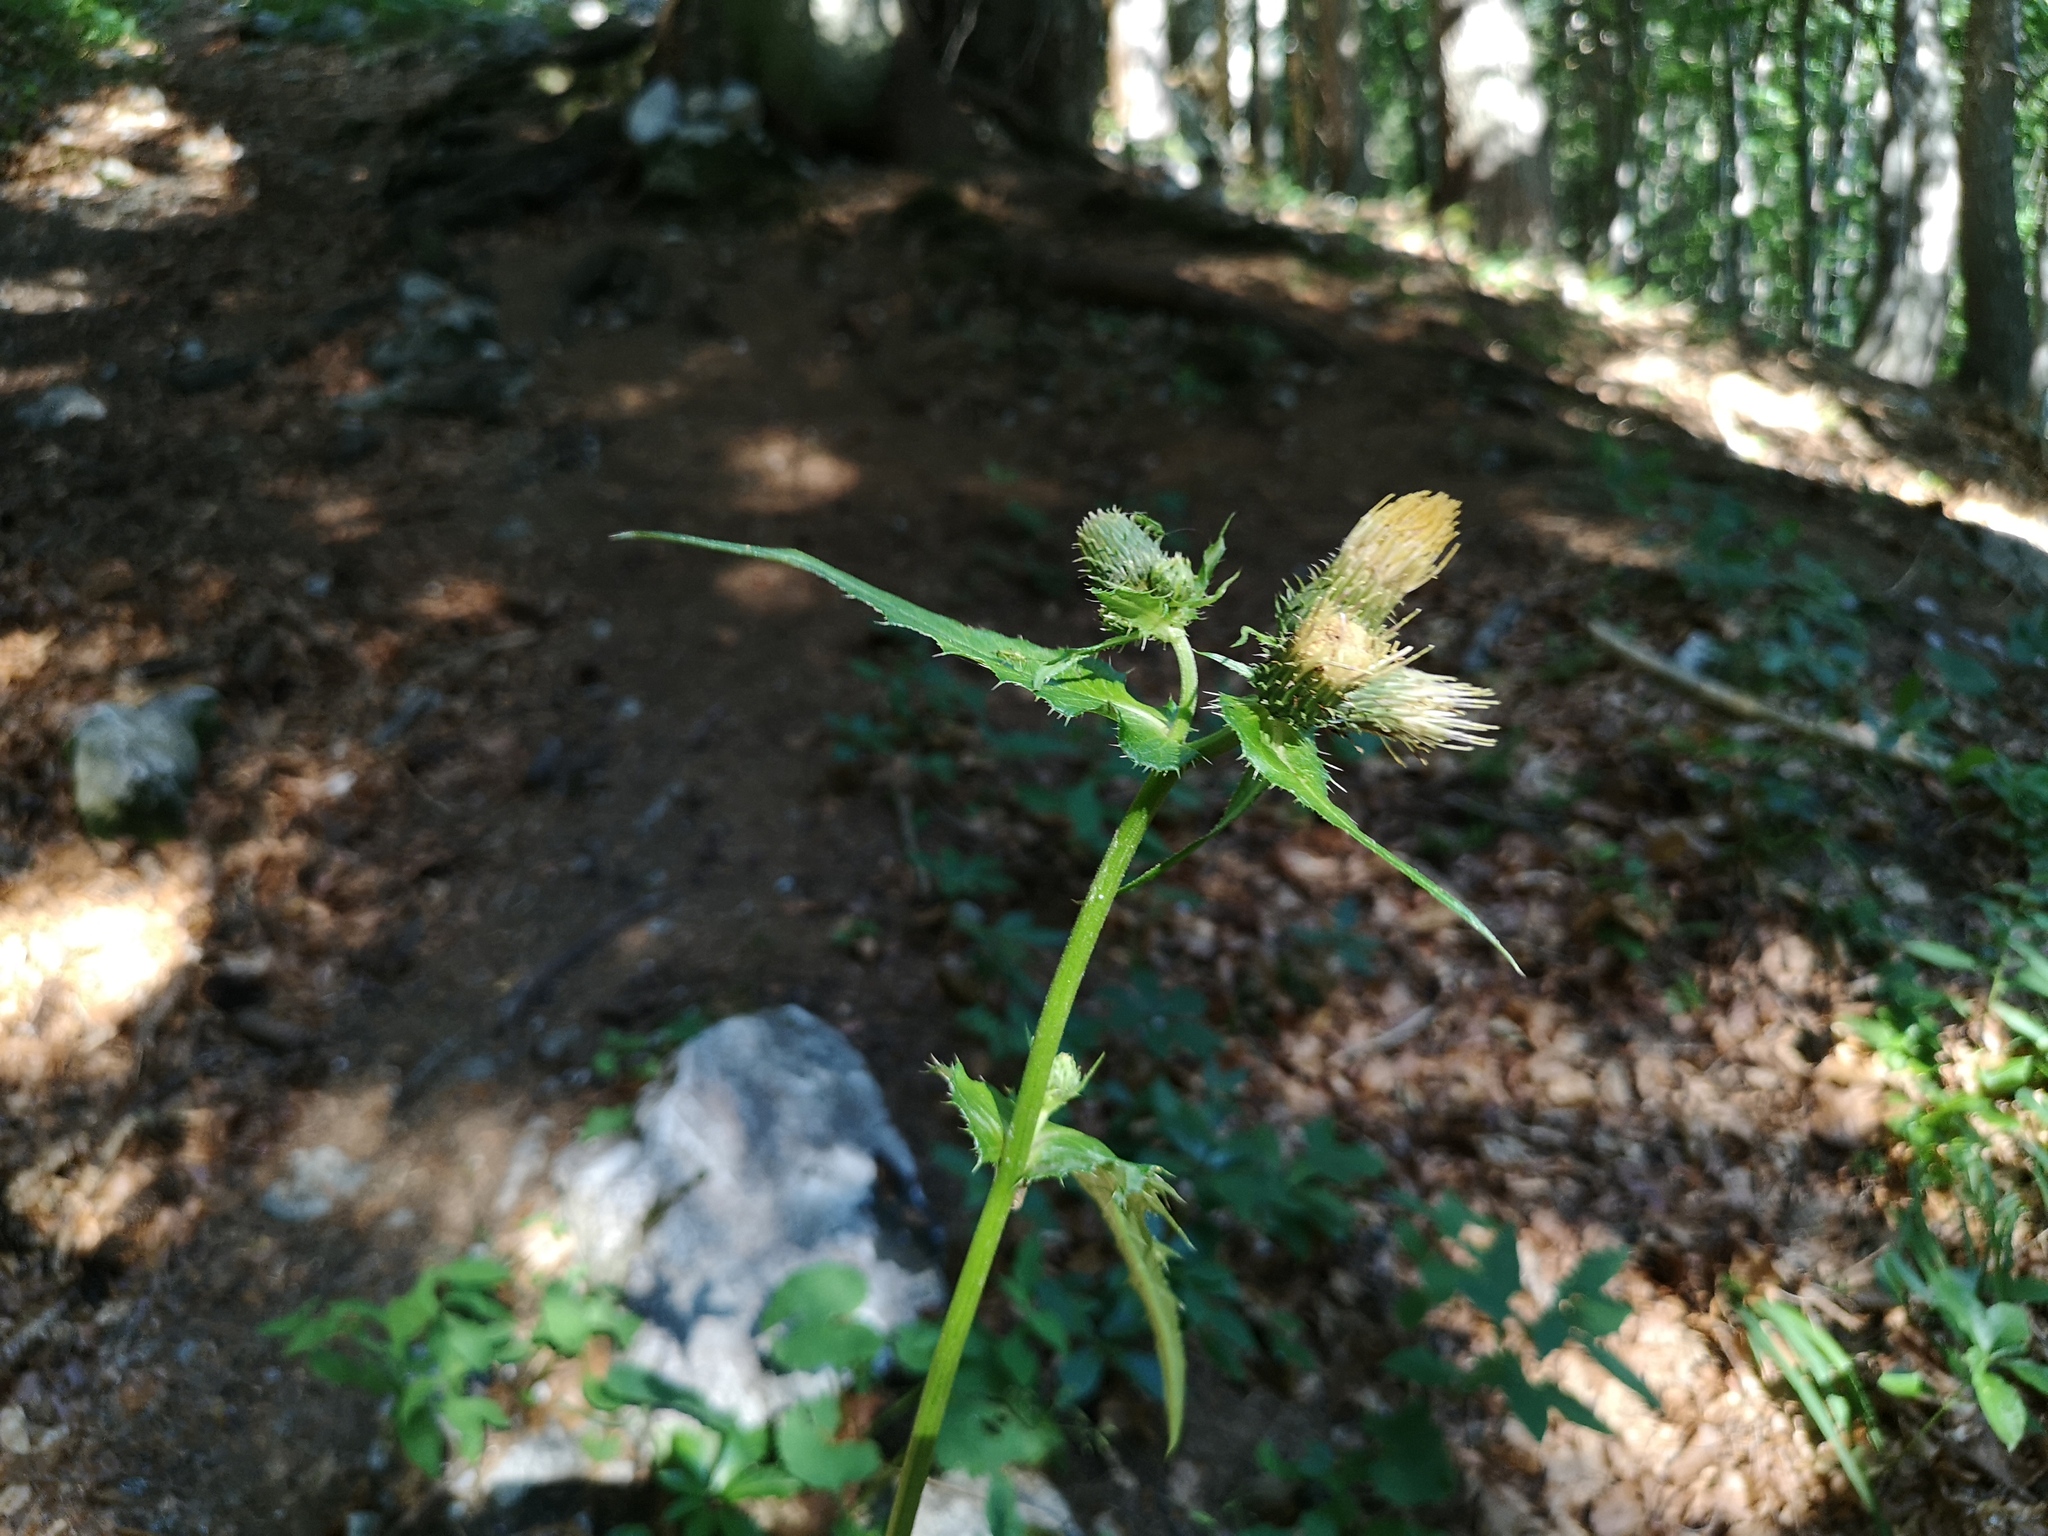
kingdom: Plantae
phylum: Tracheophyta
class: Magnoliopsida
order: Asterales
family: Asteraceae
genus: Cirsium
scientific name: Cirsium erisithales
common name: Yellow thistle
